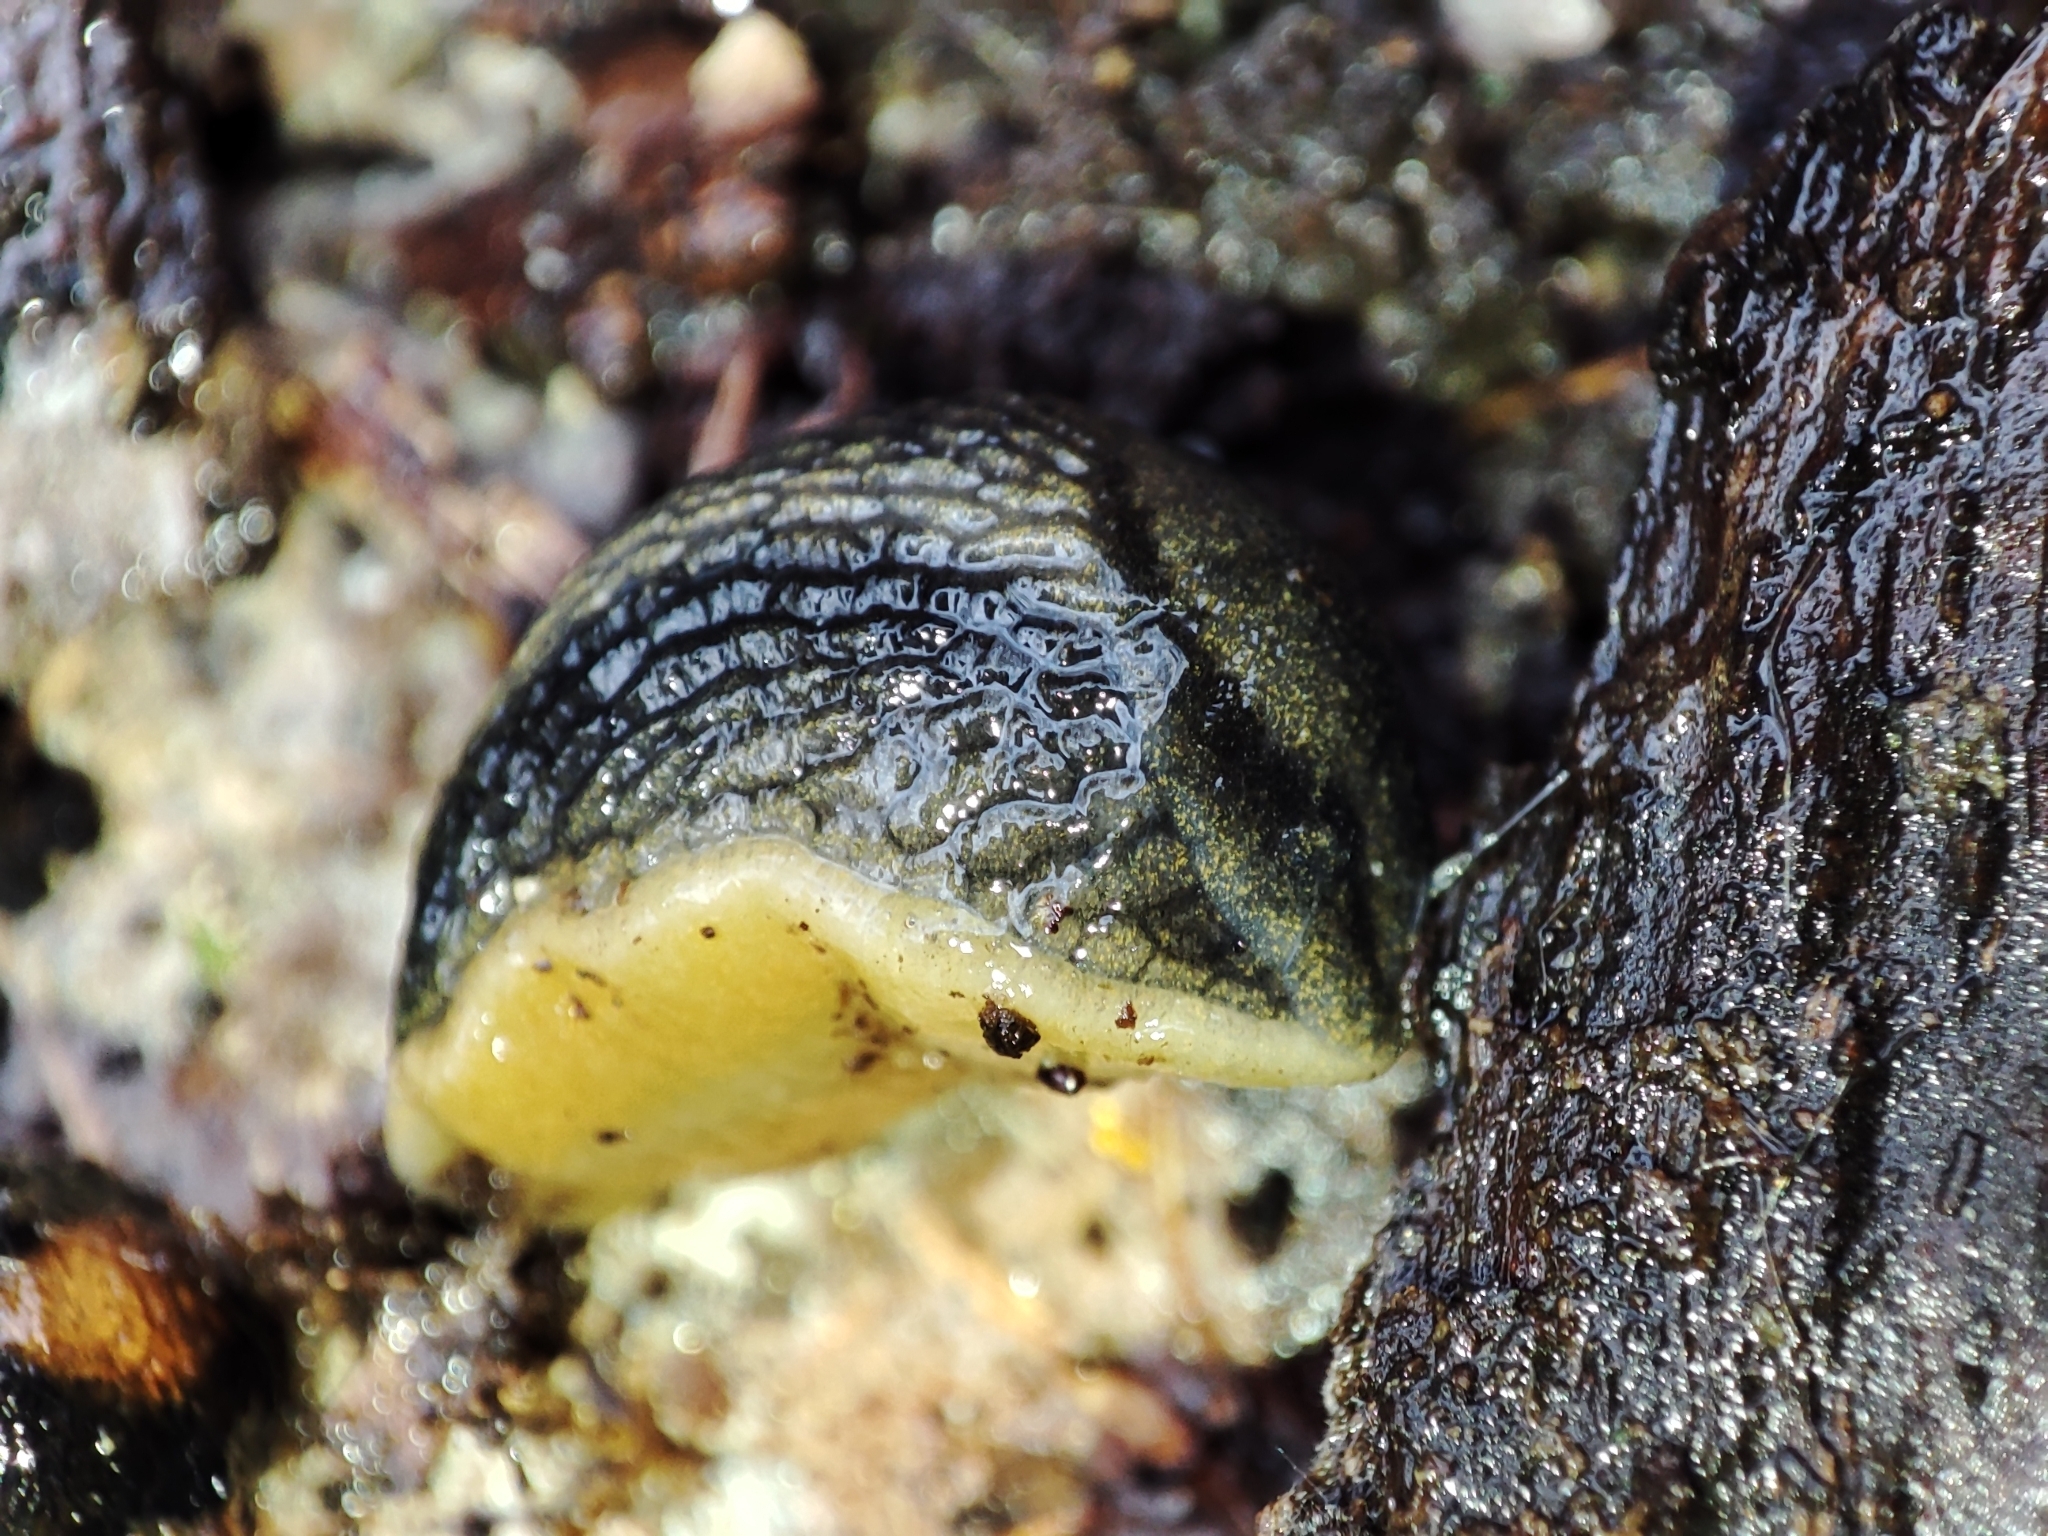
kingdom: Animalia
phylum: Mollusca
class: Gastropoda
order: Stylommatophora
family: Arionidae
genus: Arion
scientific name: Arion distinctus
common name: Darkface arion
